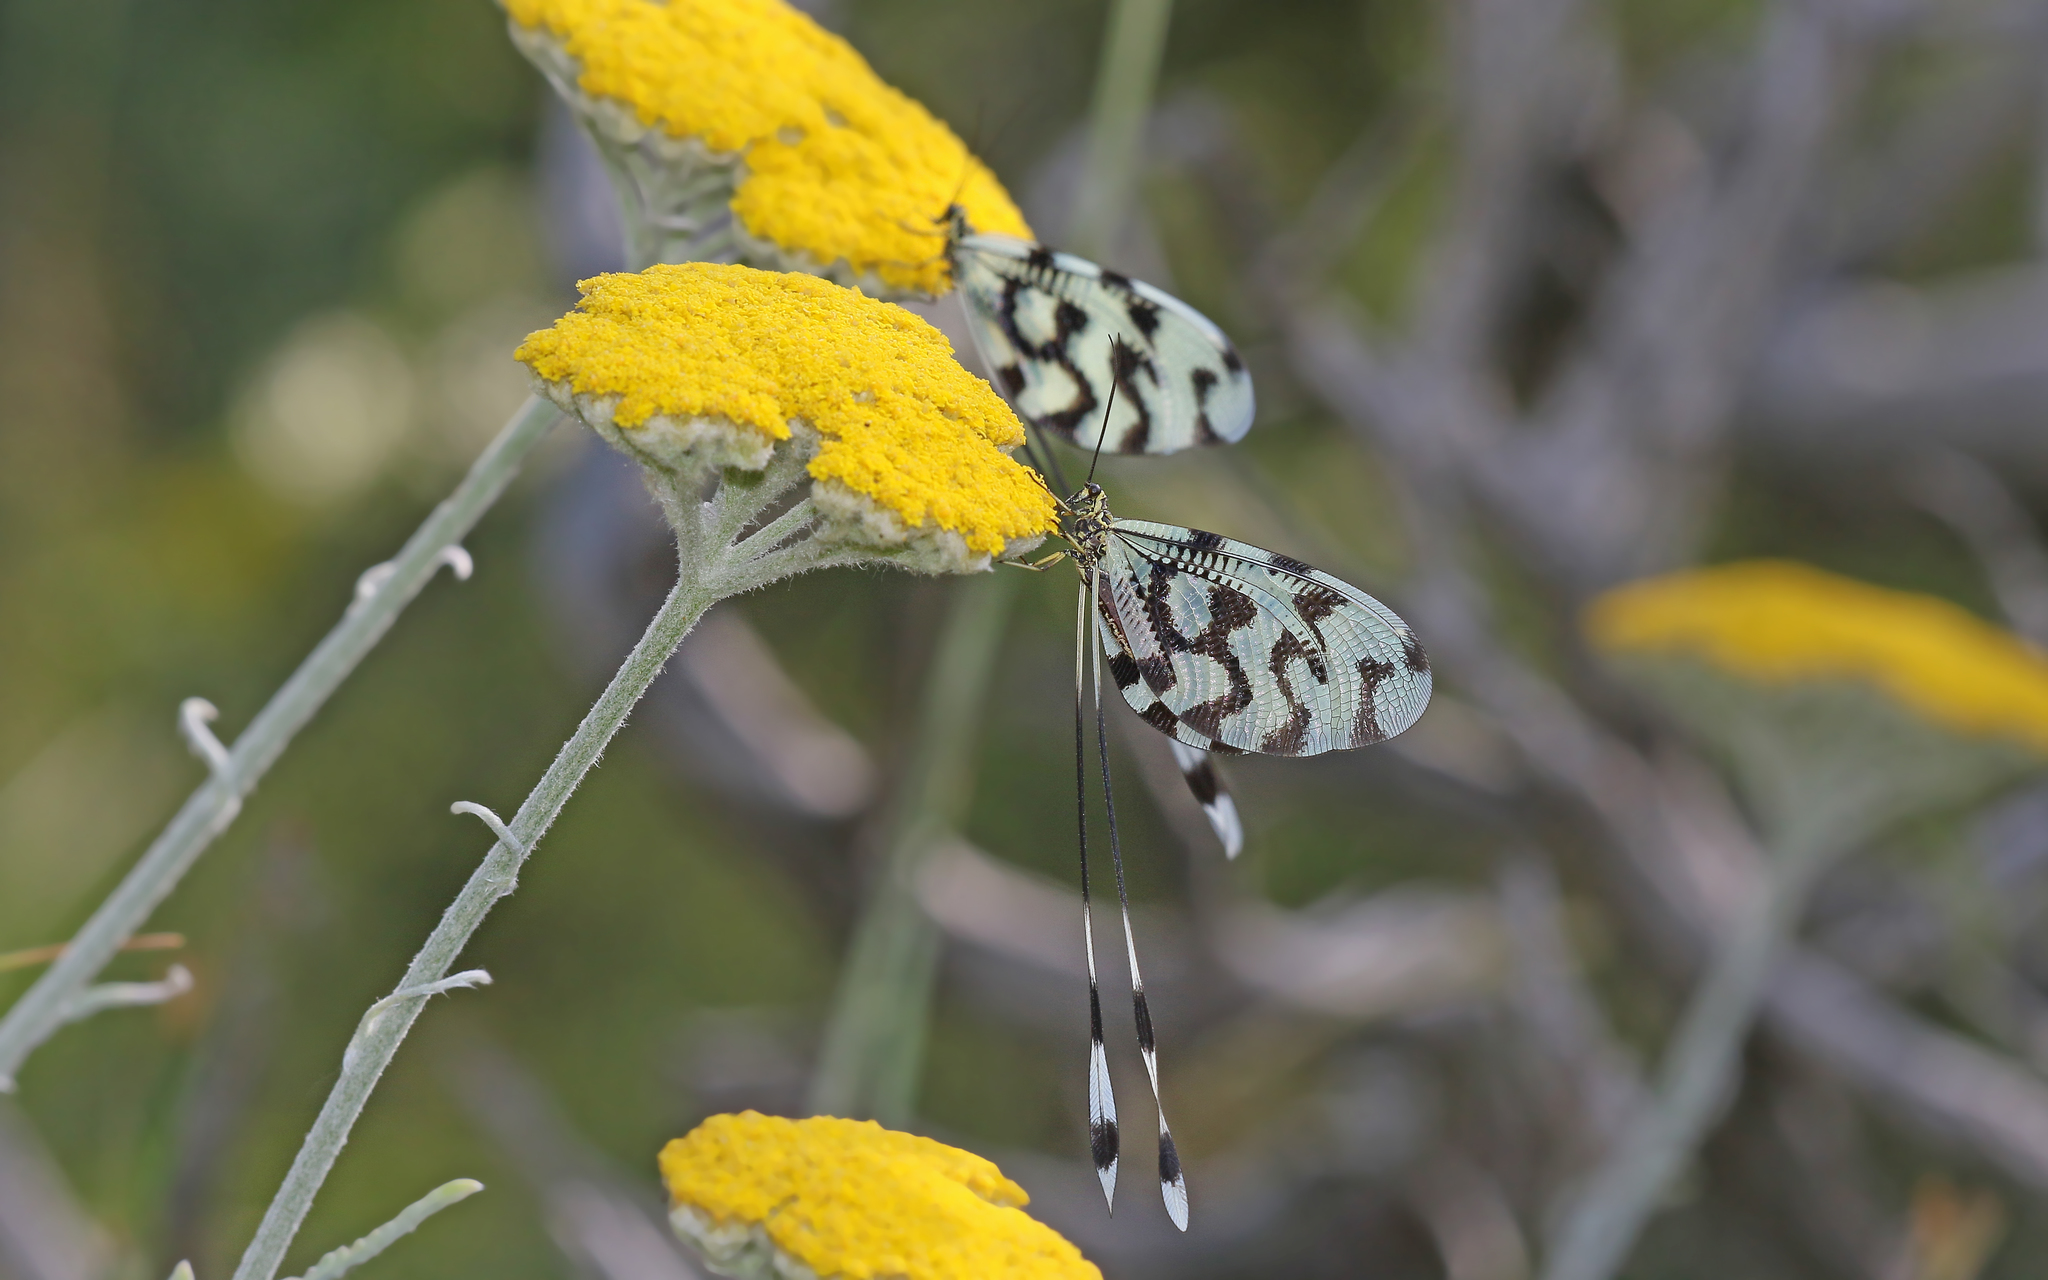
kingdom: Animalia
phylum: Arthropoda
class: Insecta
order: Neuroptera
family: Nemopteridae
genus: Nemoptera
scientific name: Nemoptera sinuata
